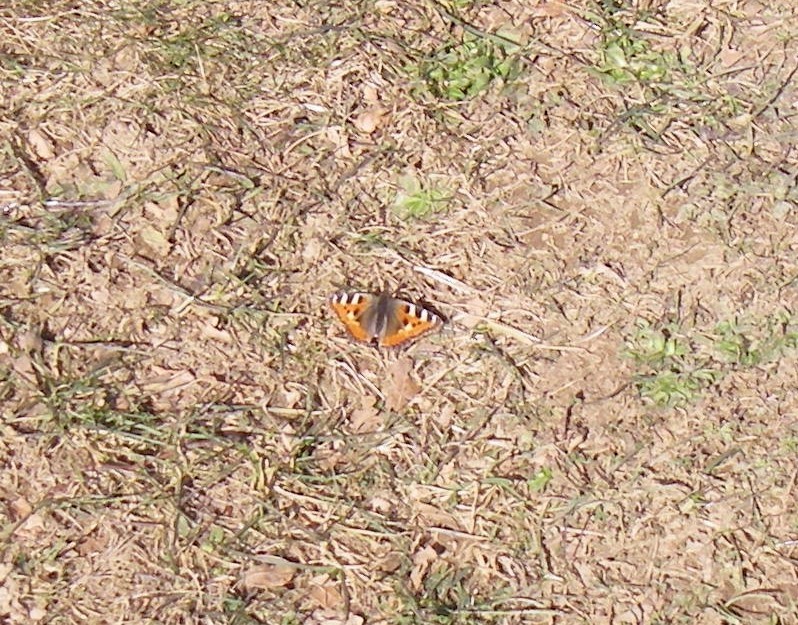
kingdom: Animalia
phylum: Arthropoda
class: Insecta
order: Lepidoptera
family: Nymphalidae
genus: Aglais
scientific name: Aglais urticae
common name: Small tortoiseshell
